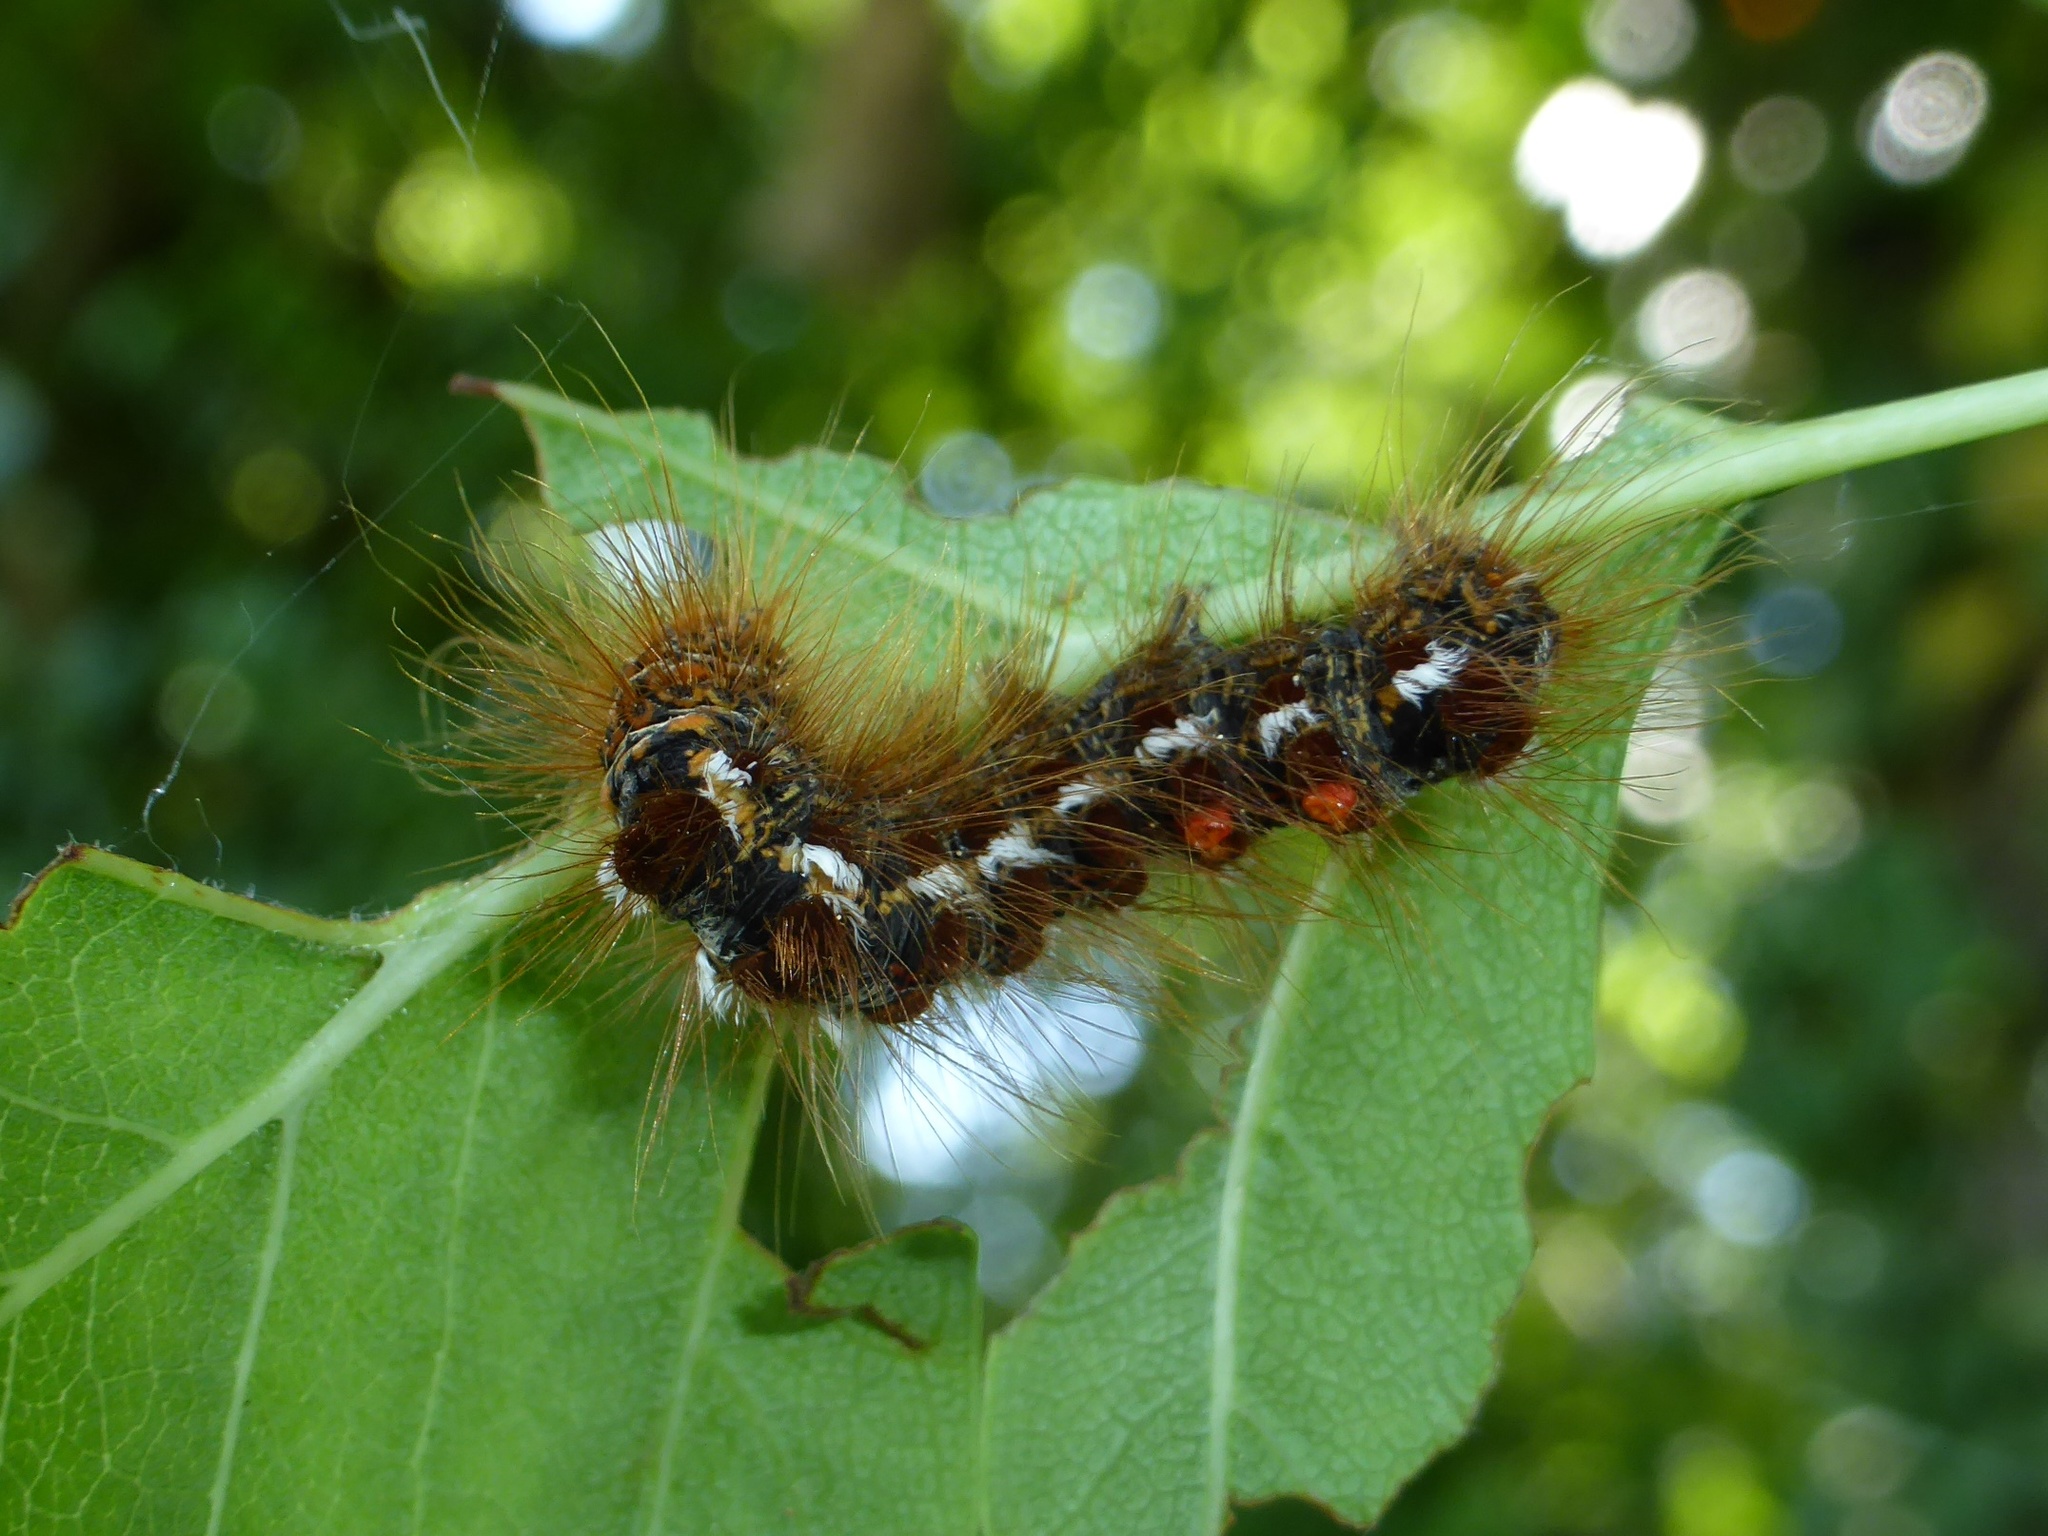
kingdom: Animalia
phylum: Arthropoda
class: Insecta
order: Lepidoptera
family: Erebidae
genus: Euproctis
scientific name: Euproctis chrysorrhoea
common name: Brown-tail
